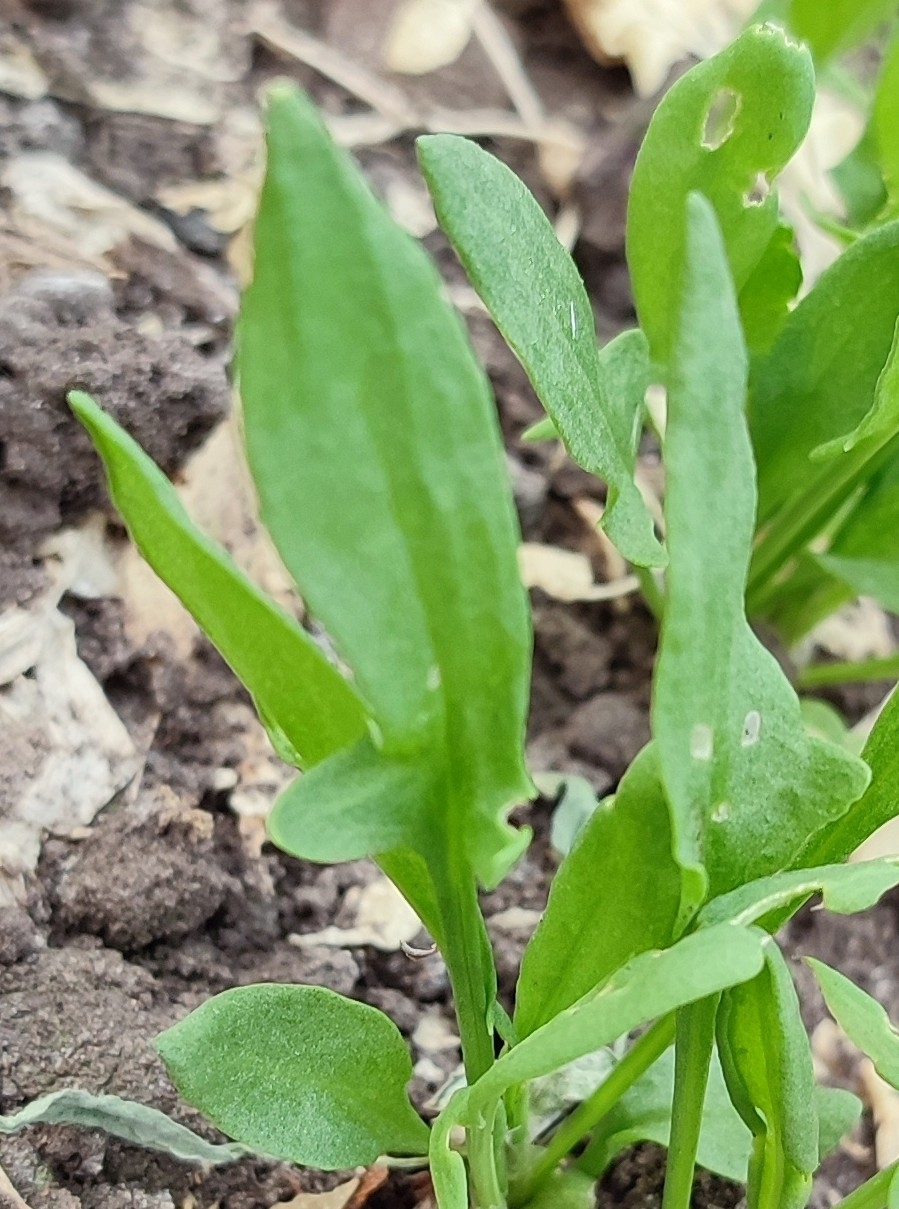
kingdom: Plantae
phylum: Tracheophyta
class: Magnoliopsida
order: Caryophyllales
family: Polygonaceae
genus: Rumex
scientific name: Rumex acetosella
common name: Common sheep sorrel
